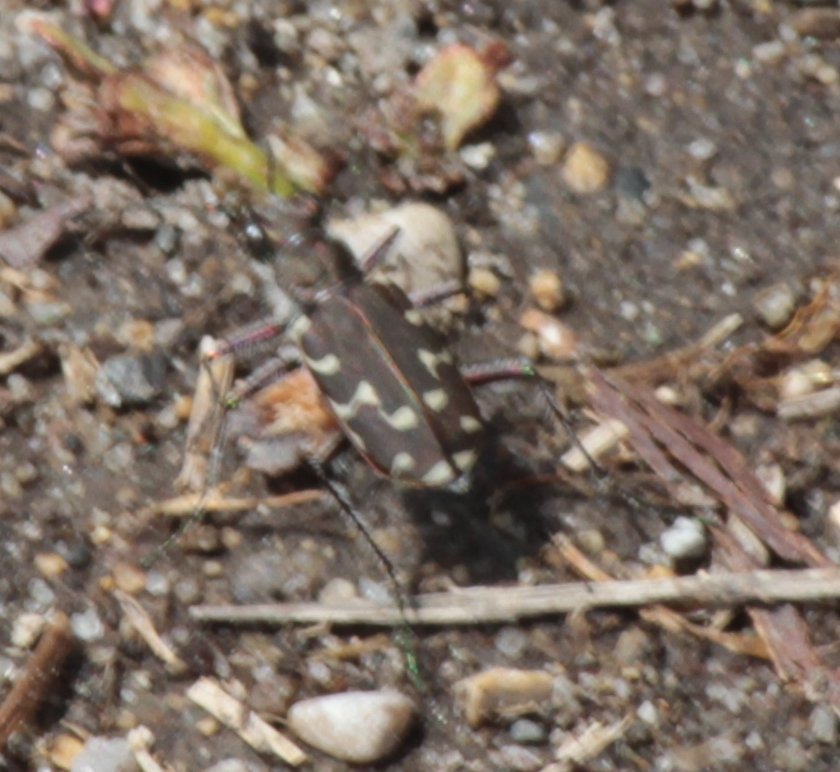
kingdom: Animalia
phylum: Arthropoda
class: Insecta
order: Coleoptera
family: Carabidae
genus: Cicindela
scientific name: Cicindela duodecimguttata
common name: Twelve-spotted tiger beetle
